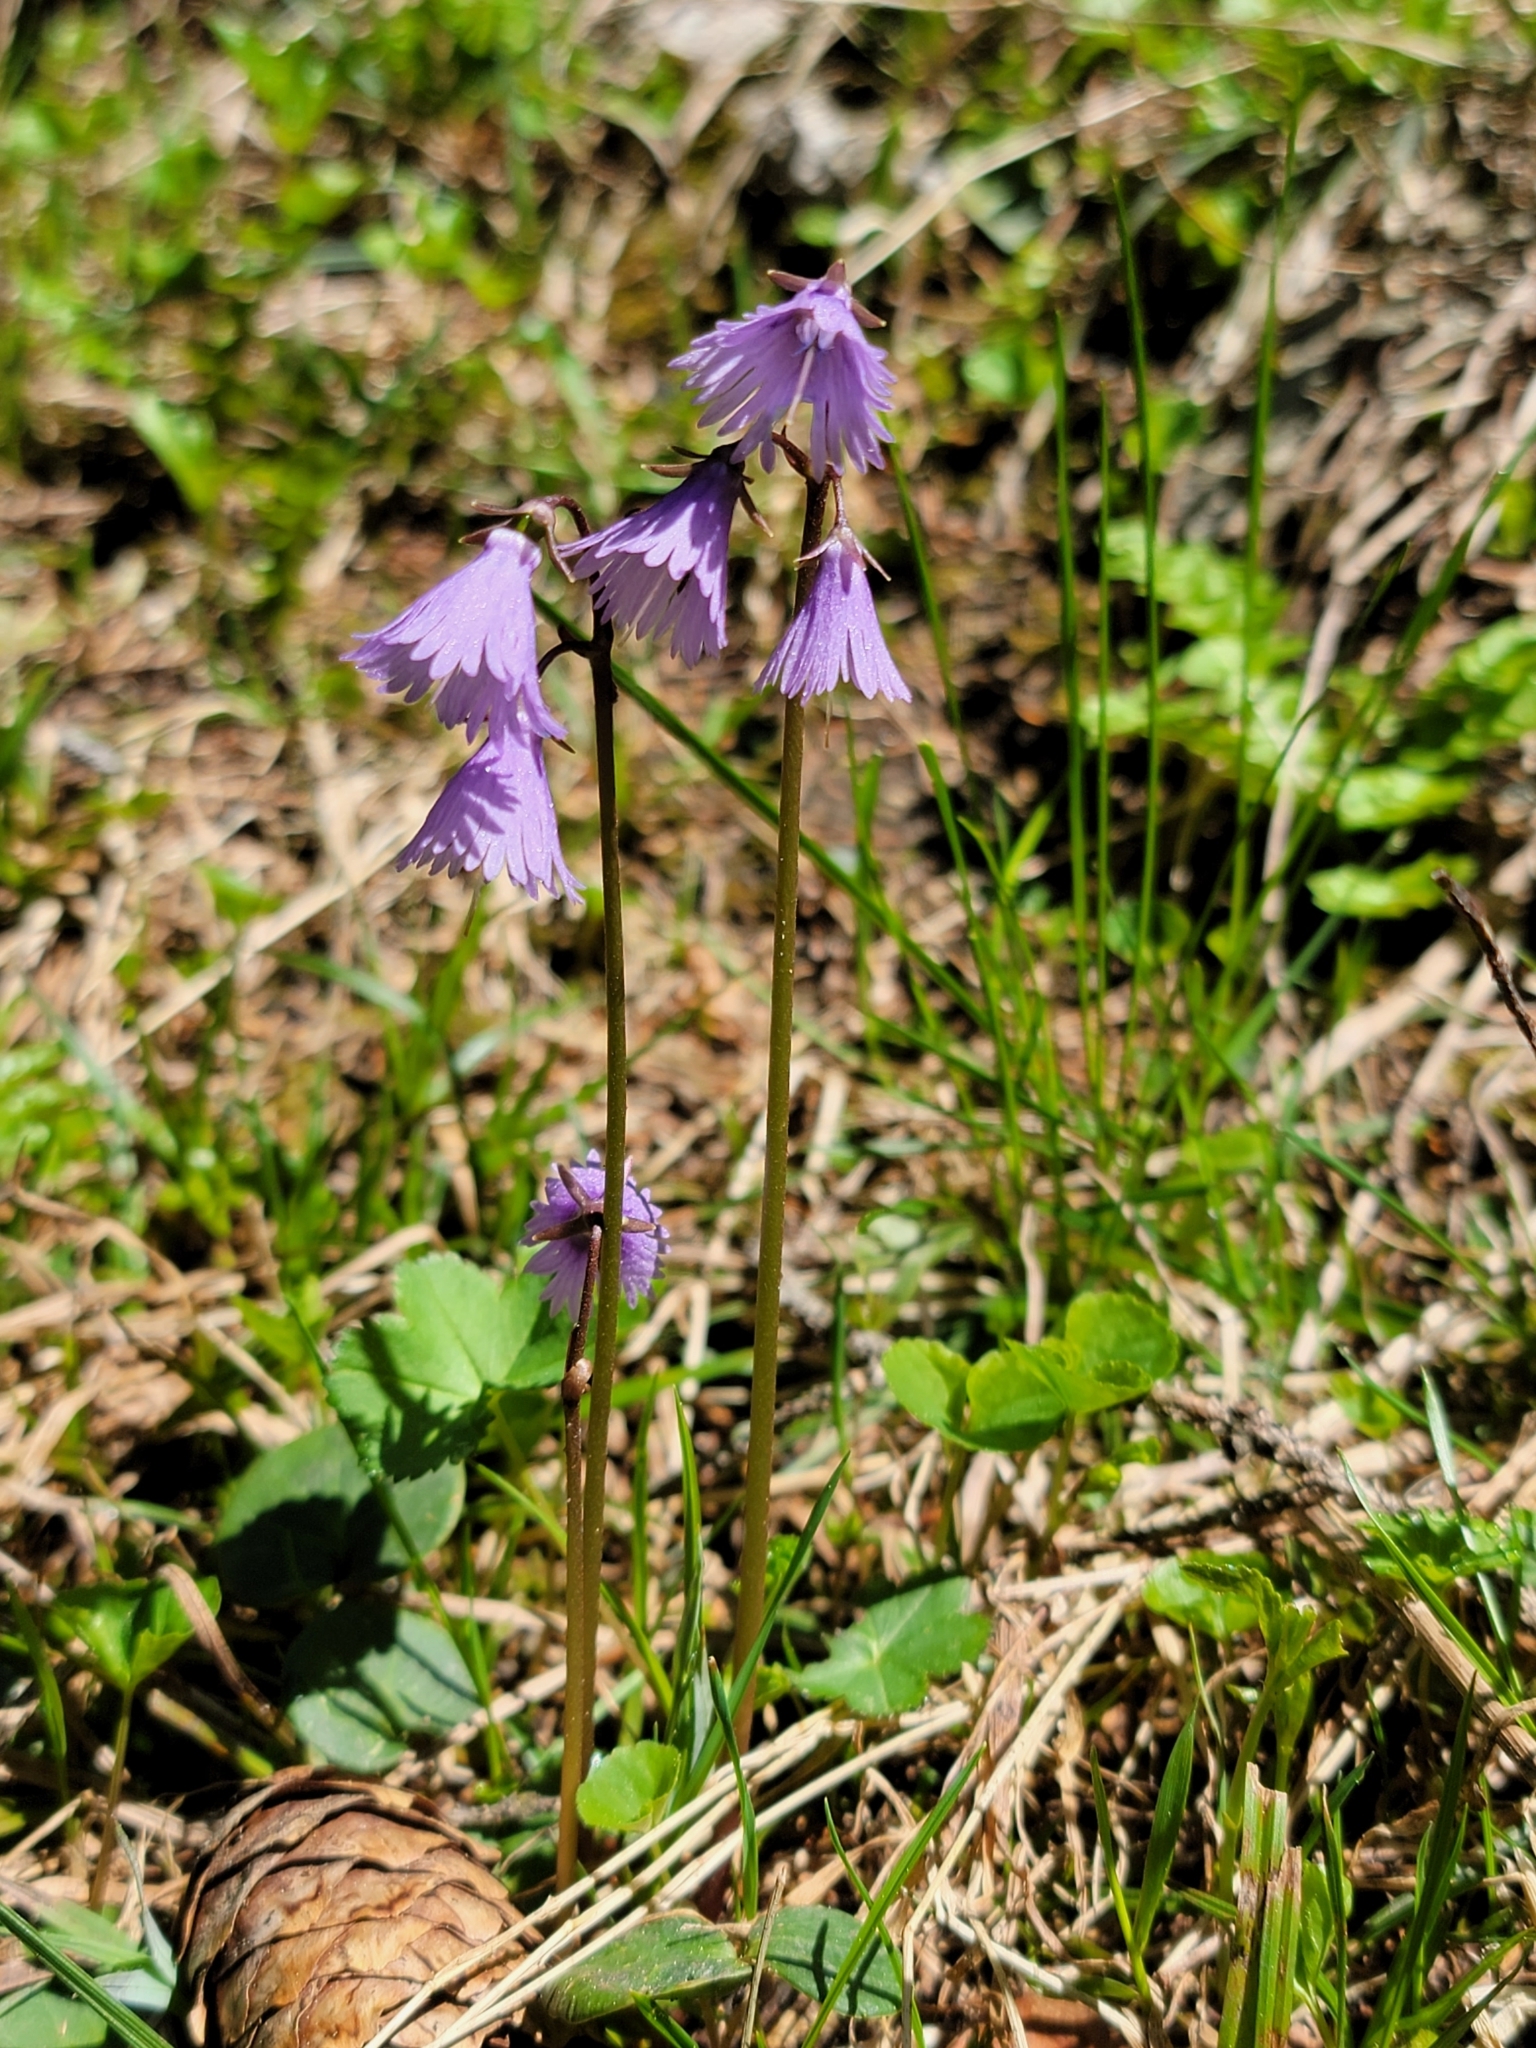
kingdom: Plantae
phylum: Tracheophyta
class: Magnoliopsida
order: Ericales
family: Primulaceae
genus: Soldanella
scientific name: Soldanella alpina
